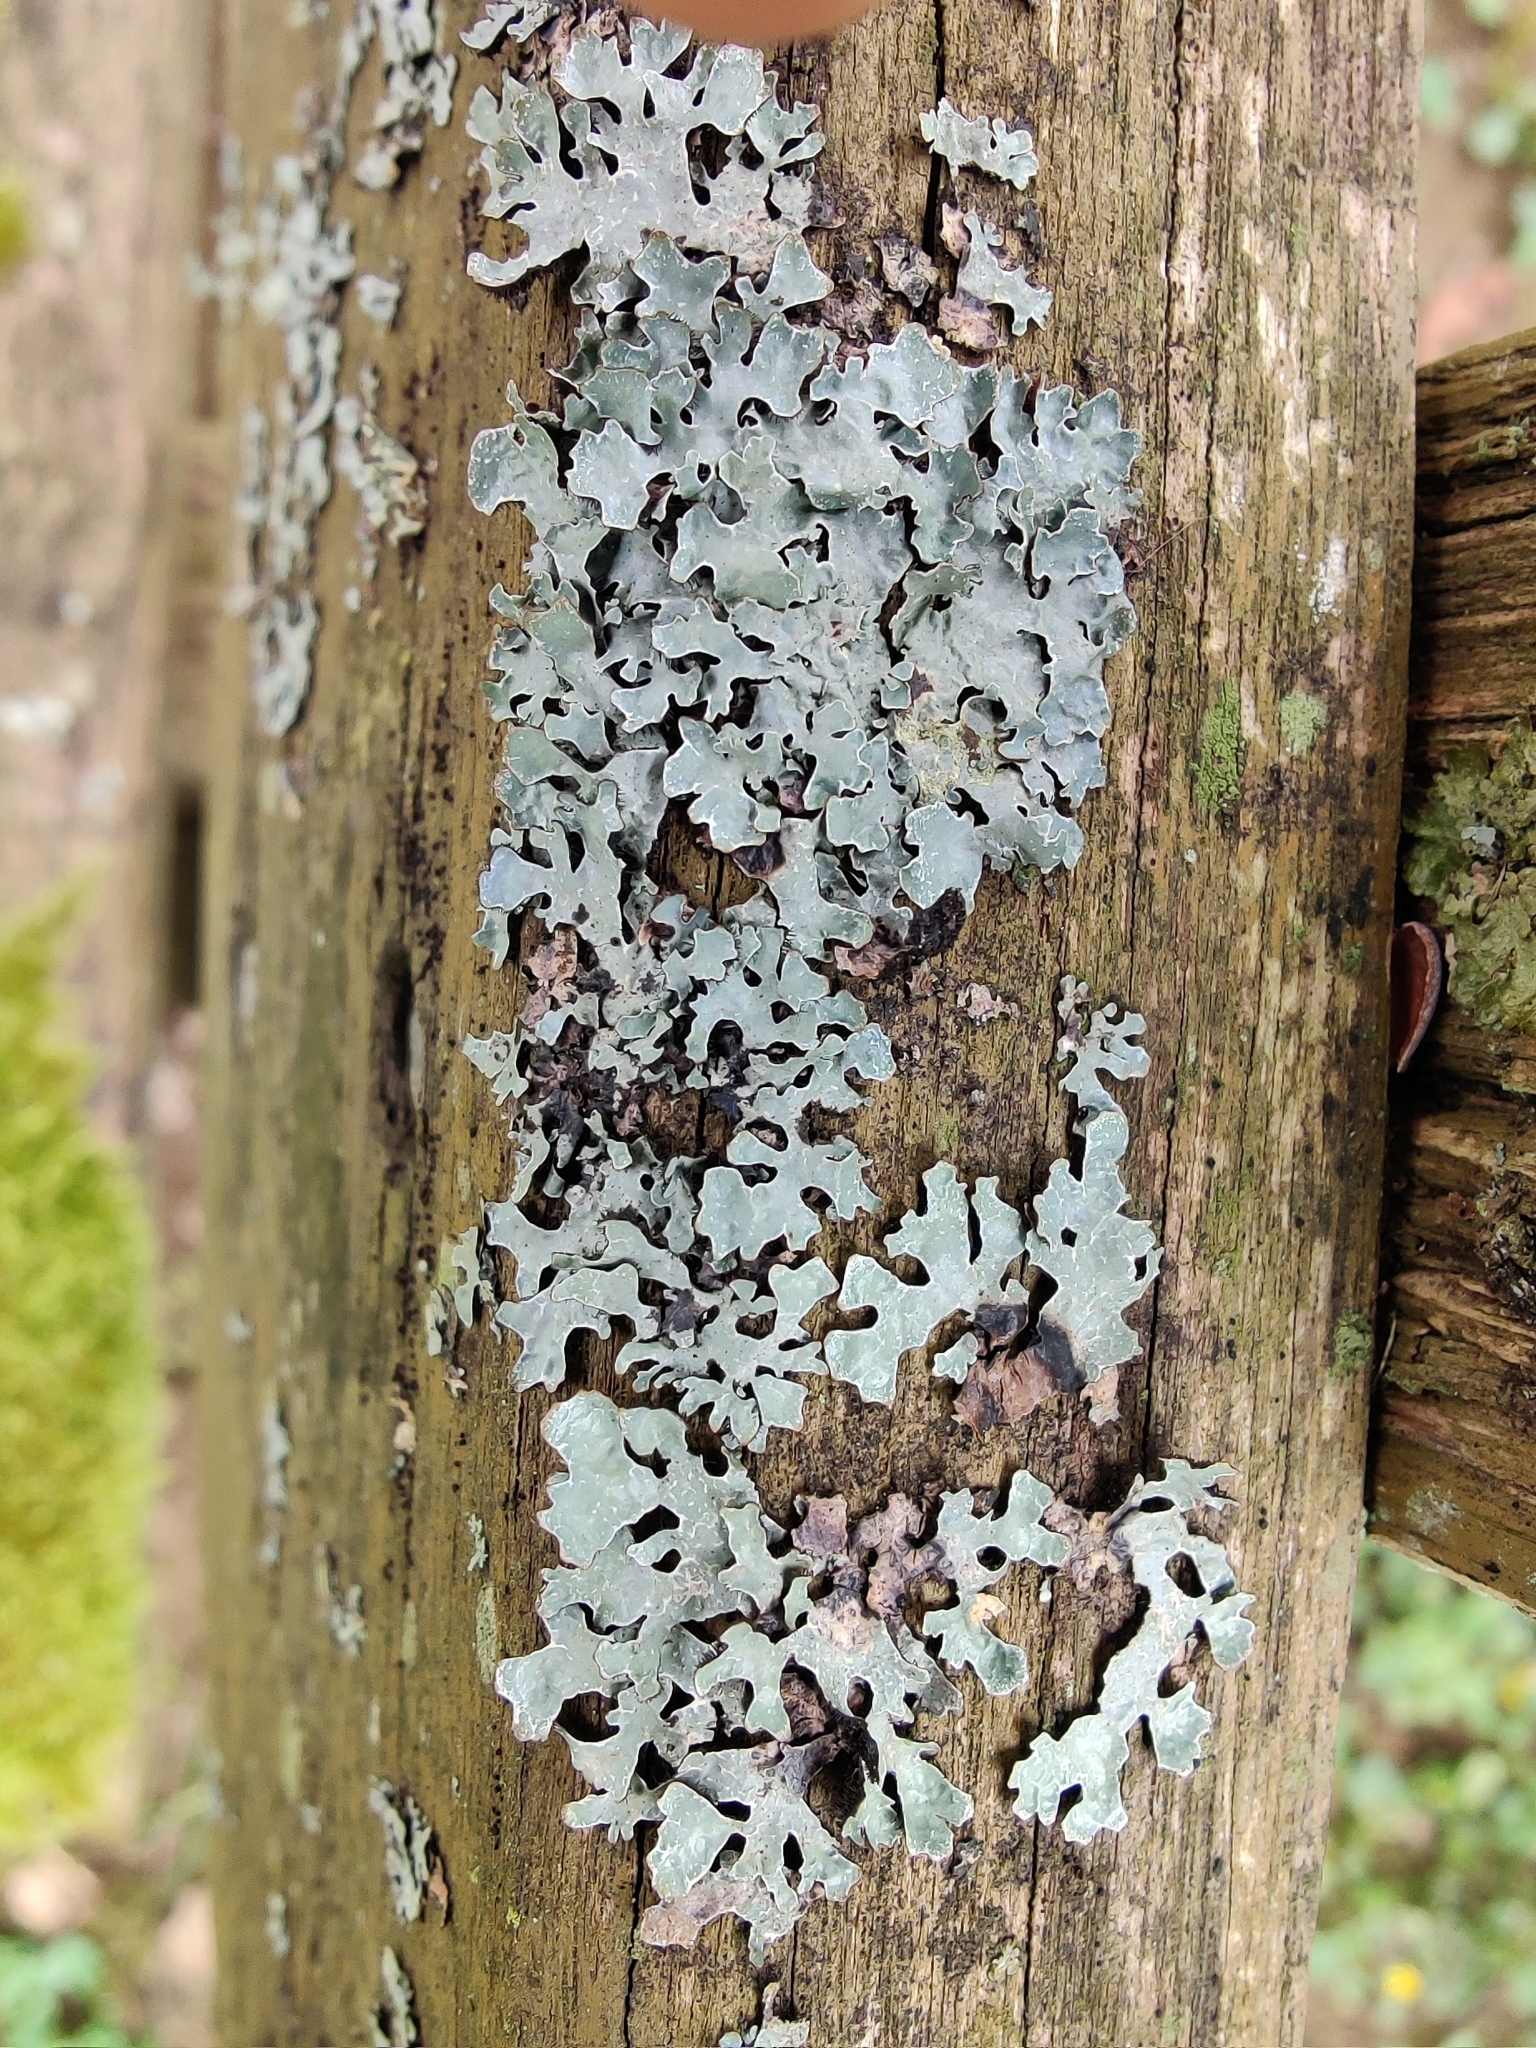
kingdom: Fungi
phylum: Ascomycota
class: Lecanoromycetes
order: Lecanorales
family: Parmeliaceae
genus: Parmelia
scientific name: Parmelia sulcata
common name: Netted shield lichen
